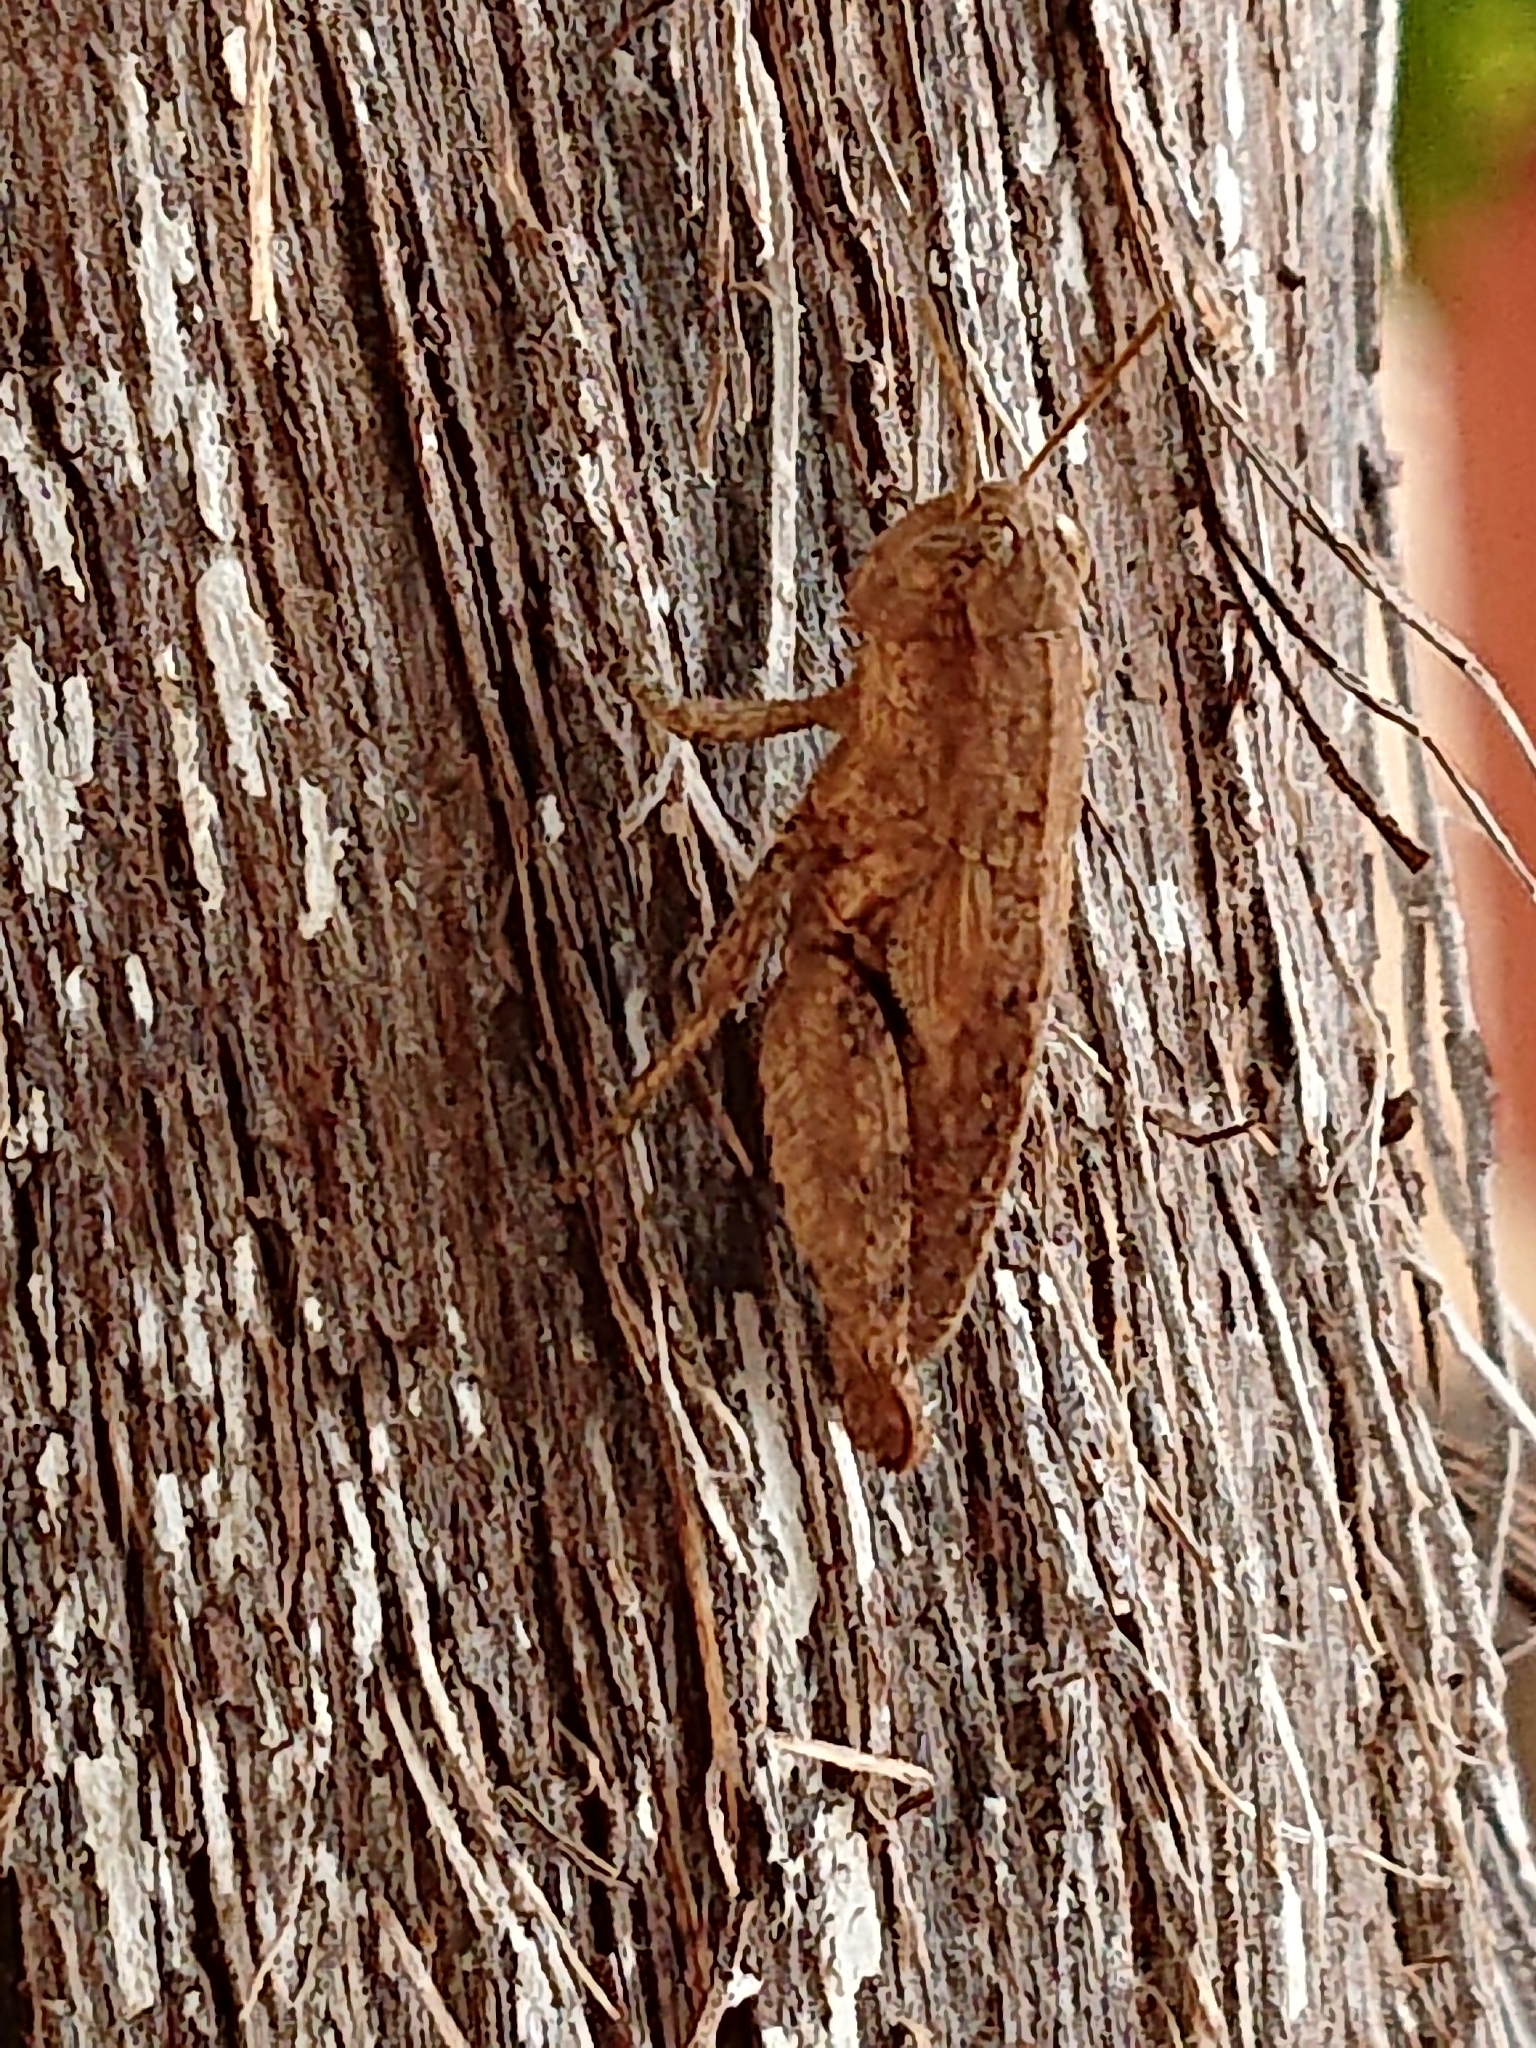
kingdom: Animalia
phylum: Arthropoda
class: Insecta
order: Orthoptera
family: Acrididae
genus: Pezotettix
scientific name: Pezotettix giornae
